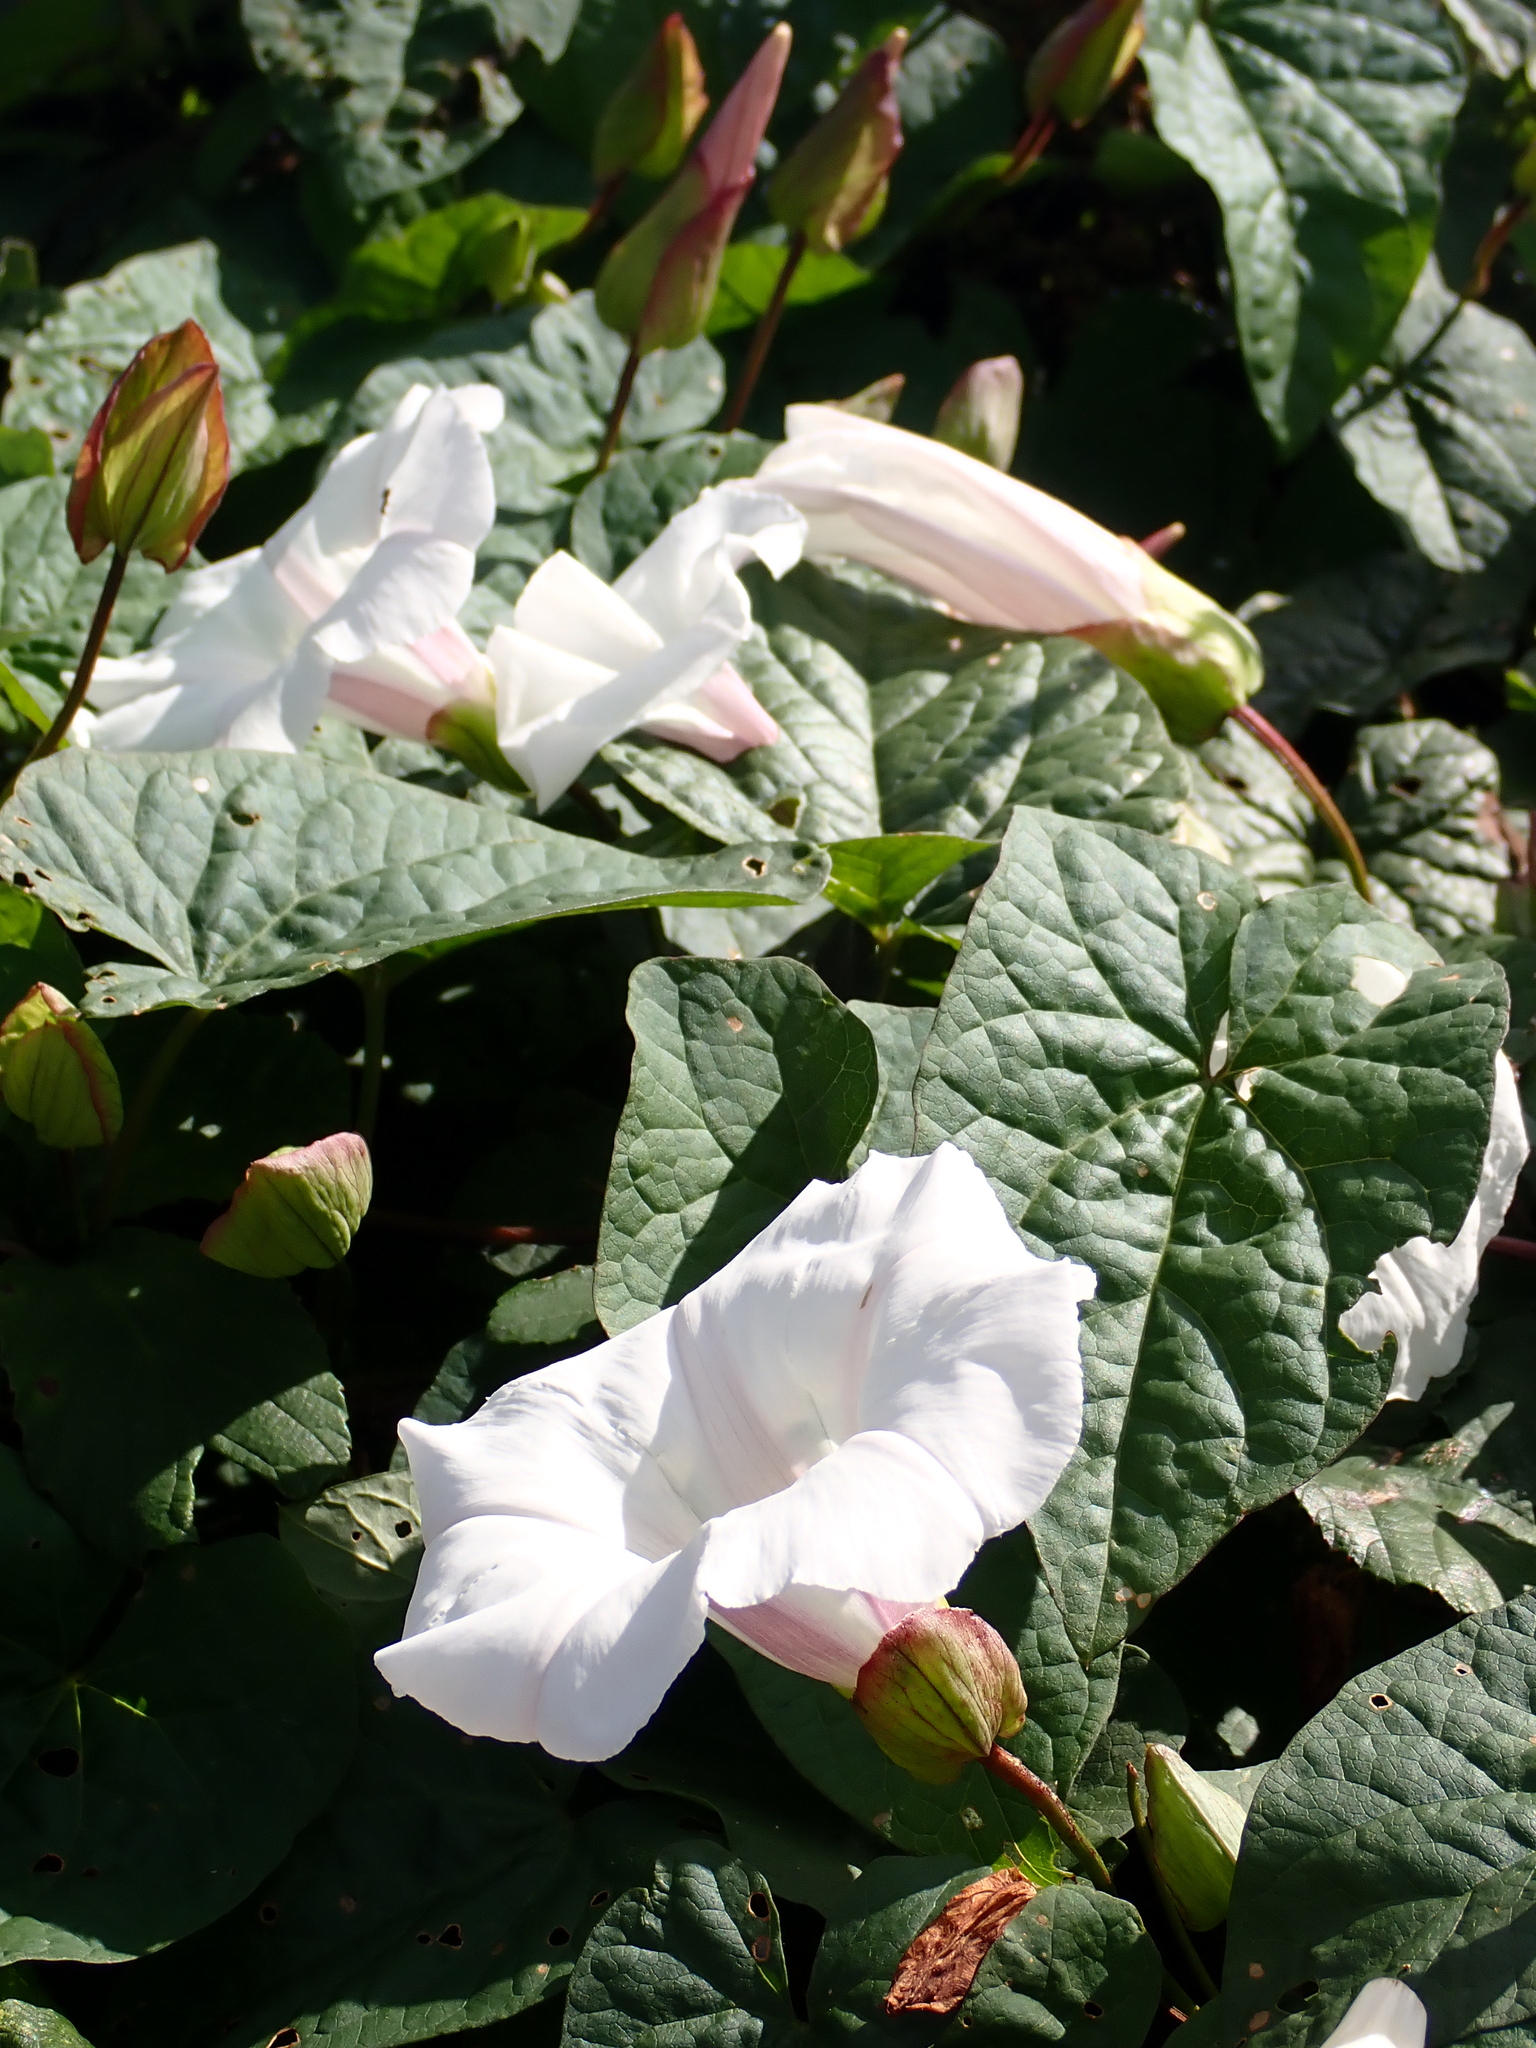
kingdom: Plantae
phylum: Tracheophyta
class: Magnoliopsida
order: Solanales
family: Convolvulaceae
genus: Calystegia
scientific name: Calystegia silvatica
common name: Large bindweed
